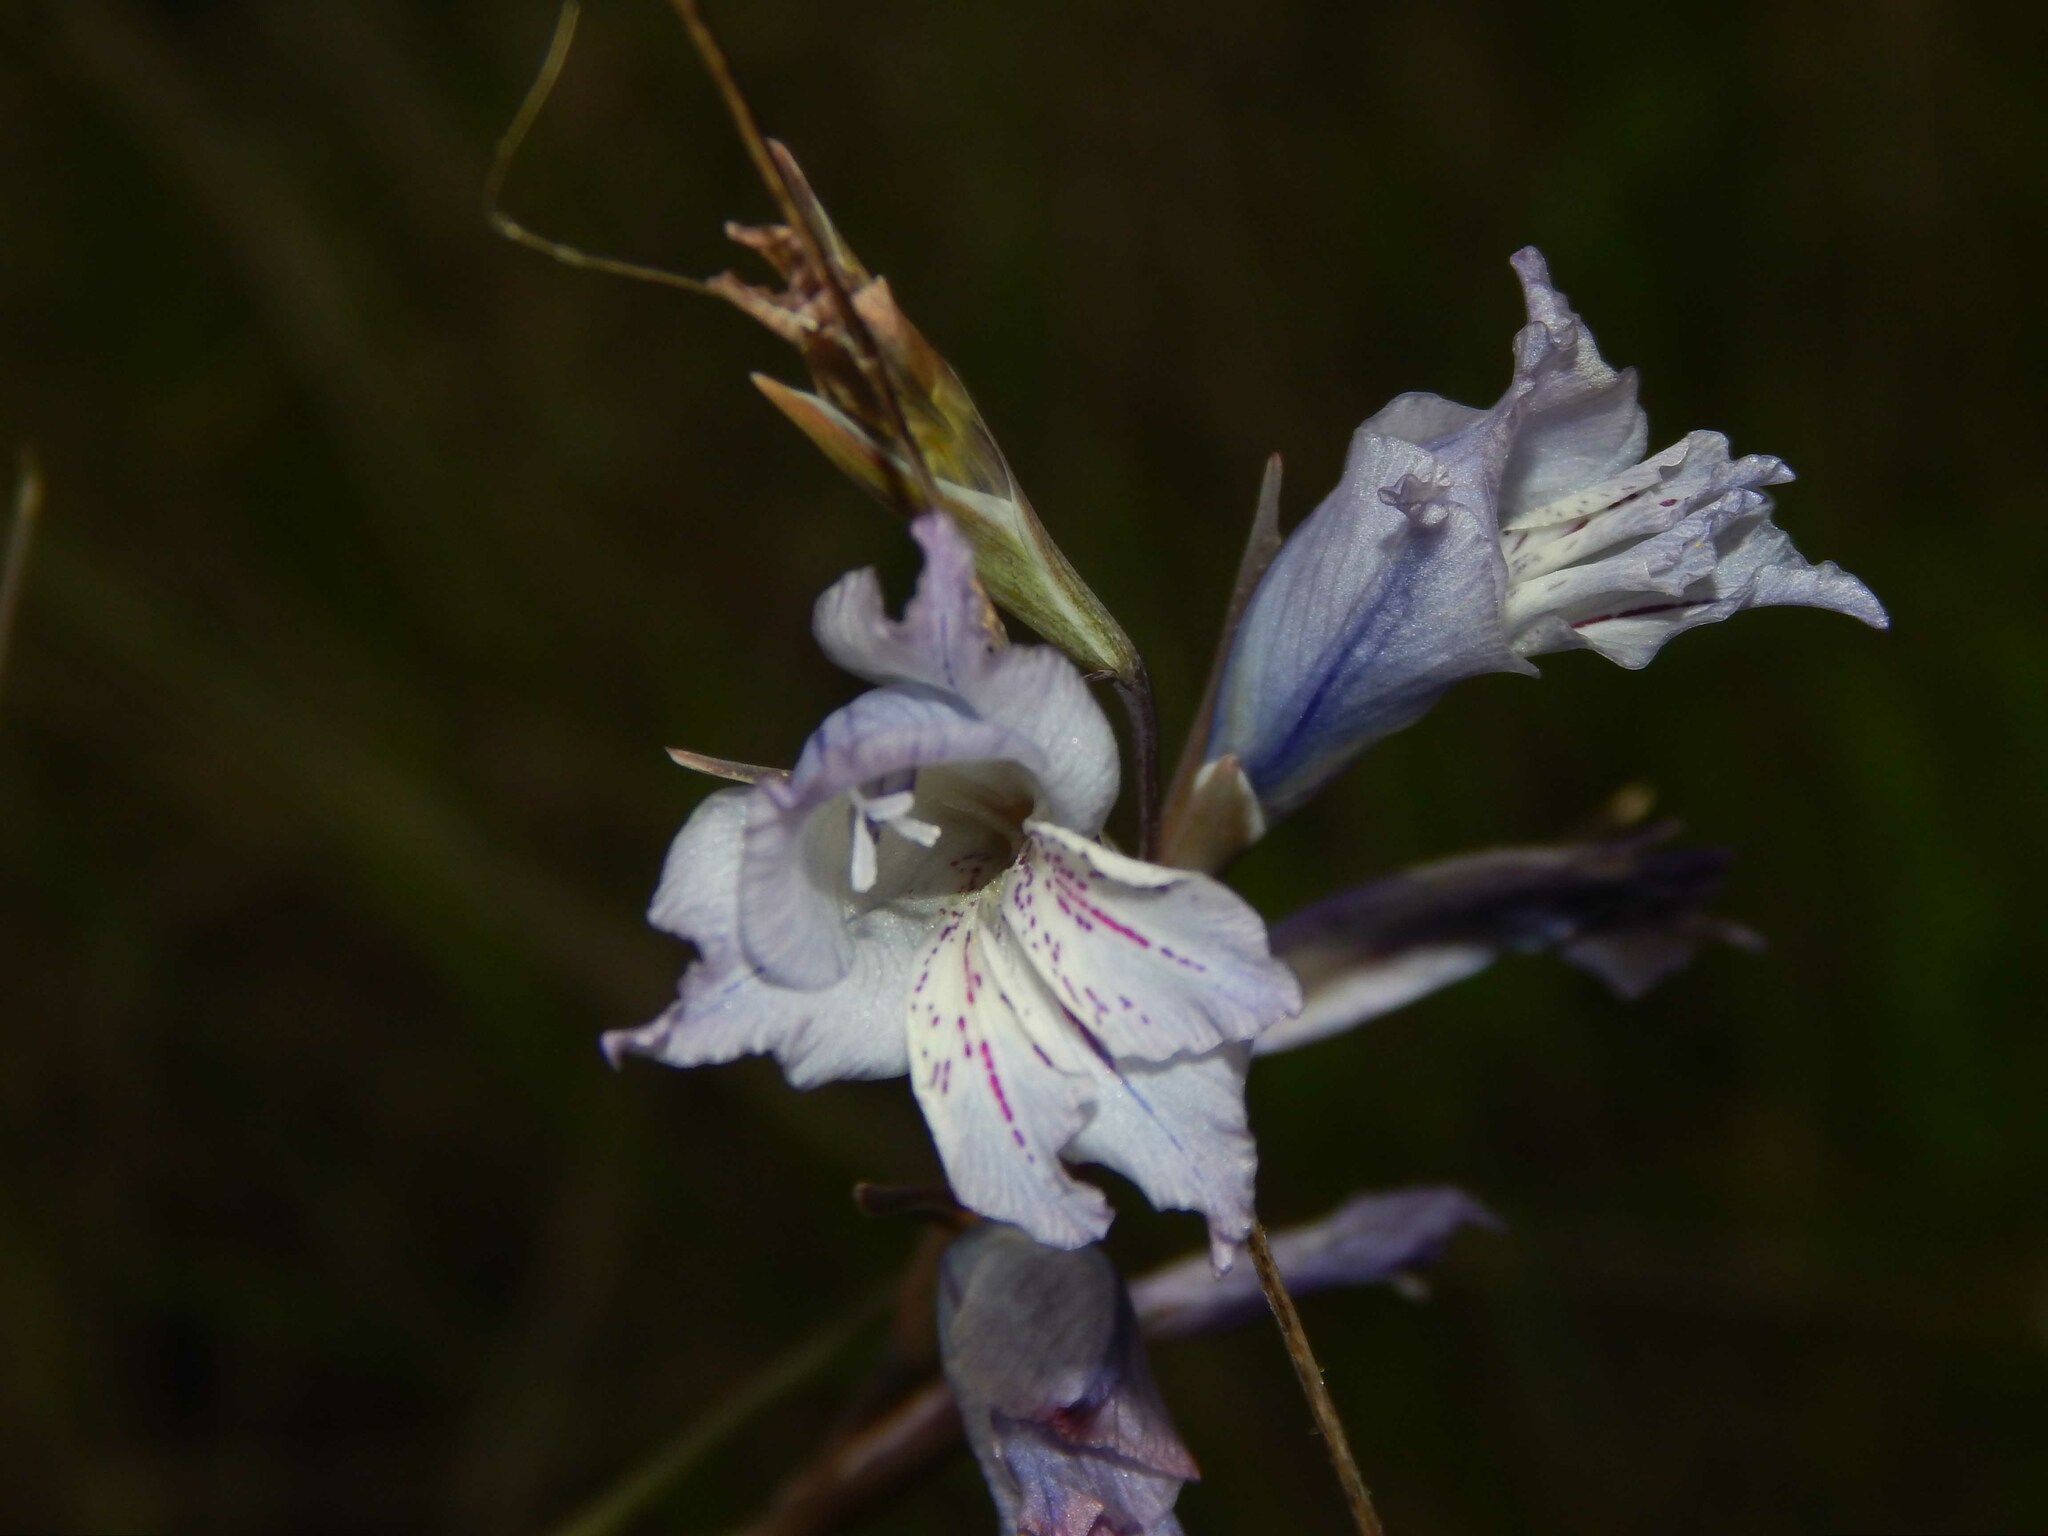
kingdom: Plantae
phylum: Tracheophyta
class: Liliopsida
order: Asparagales
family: Iridaceae
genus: Gladiolus
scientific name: Gladiolus gracilis
